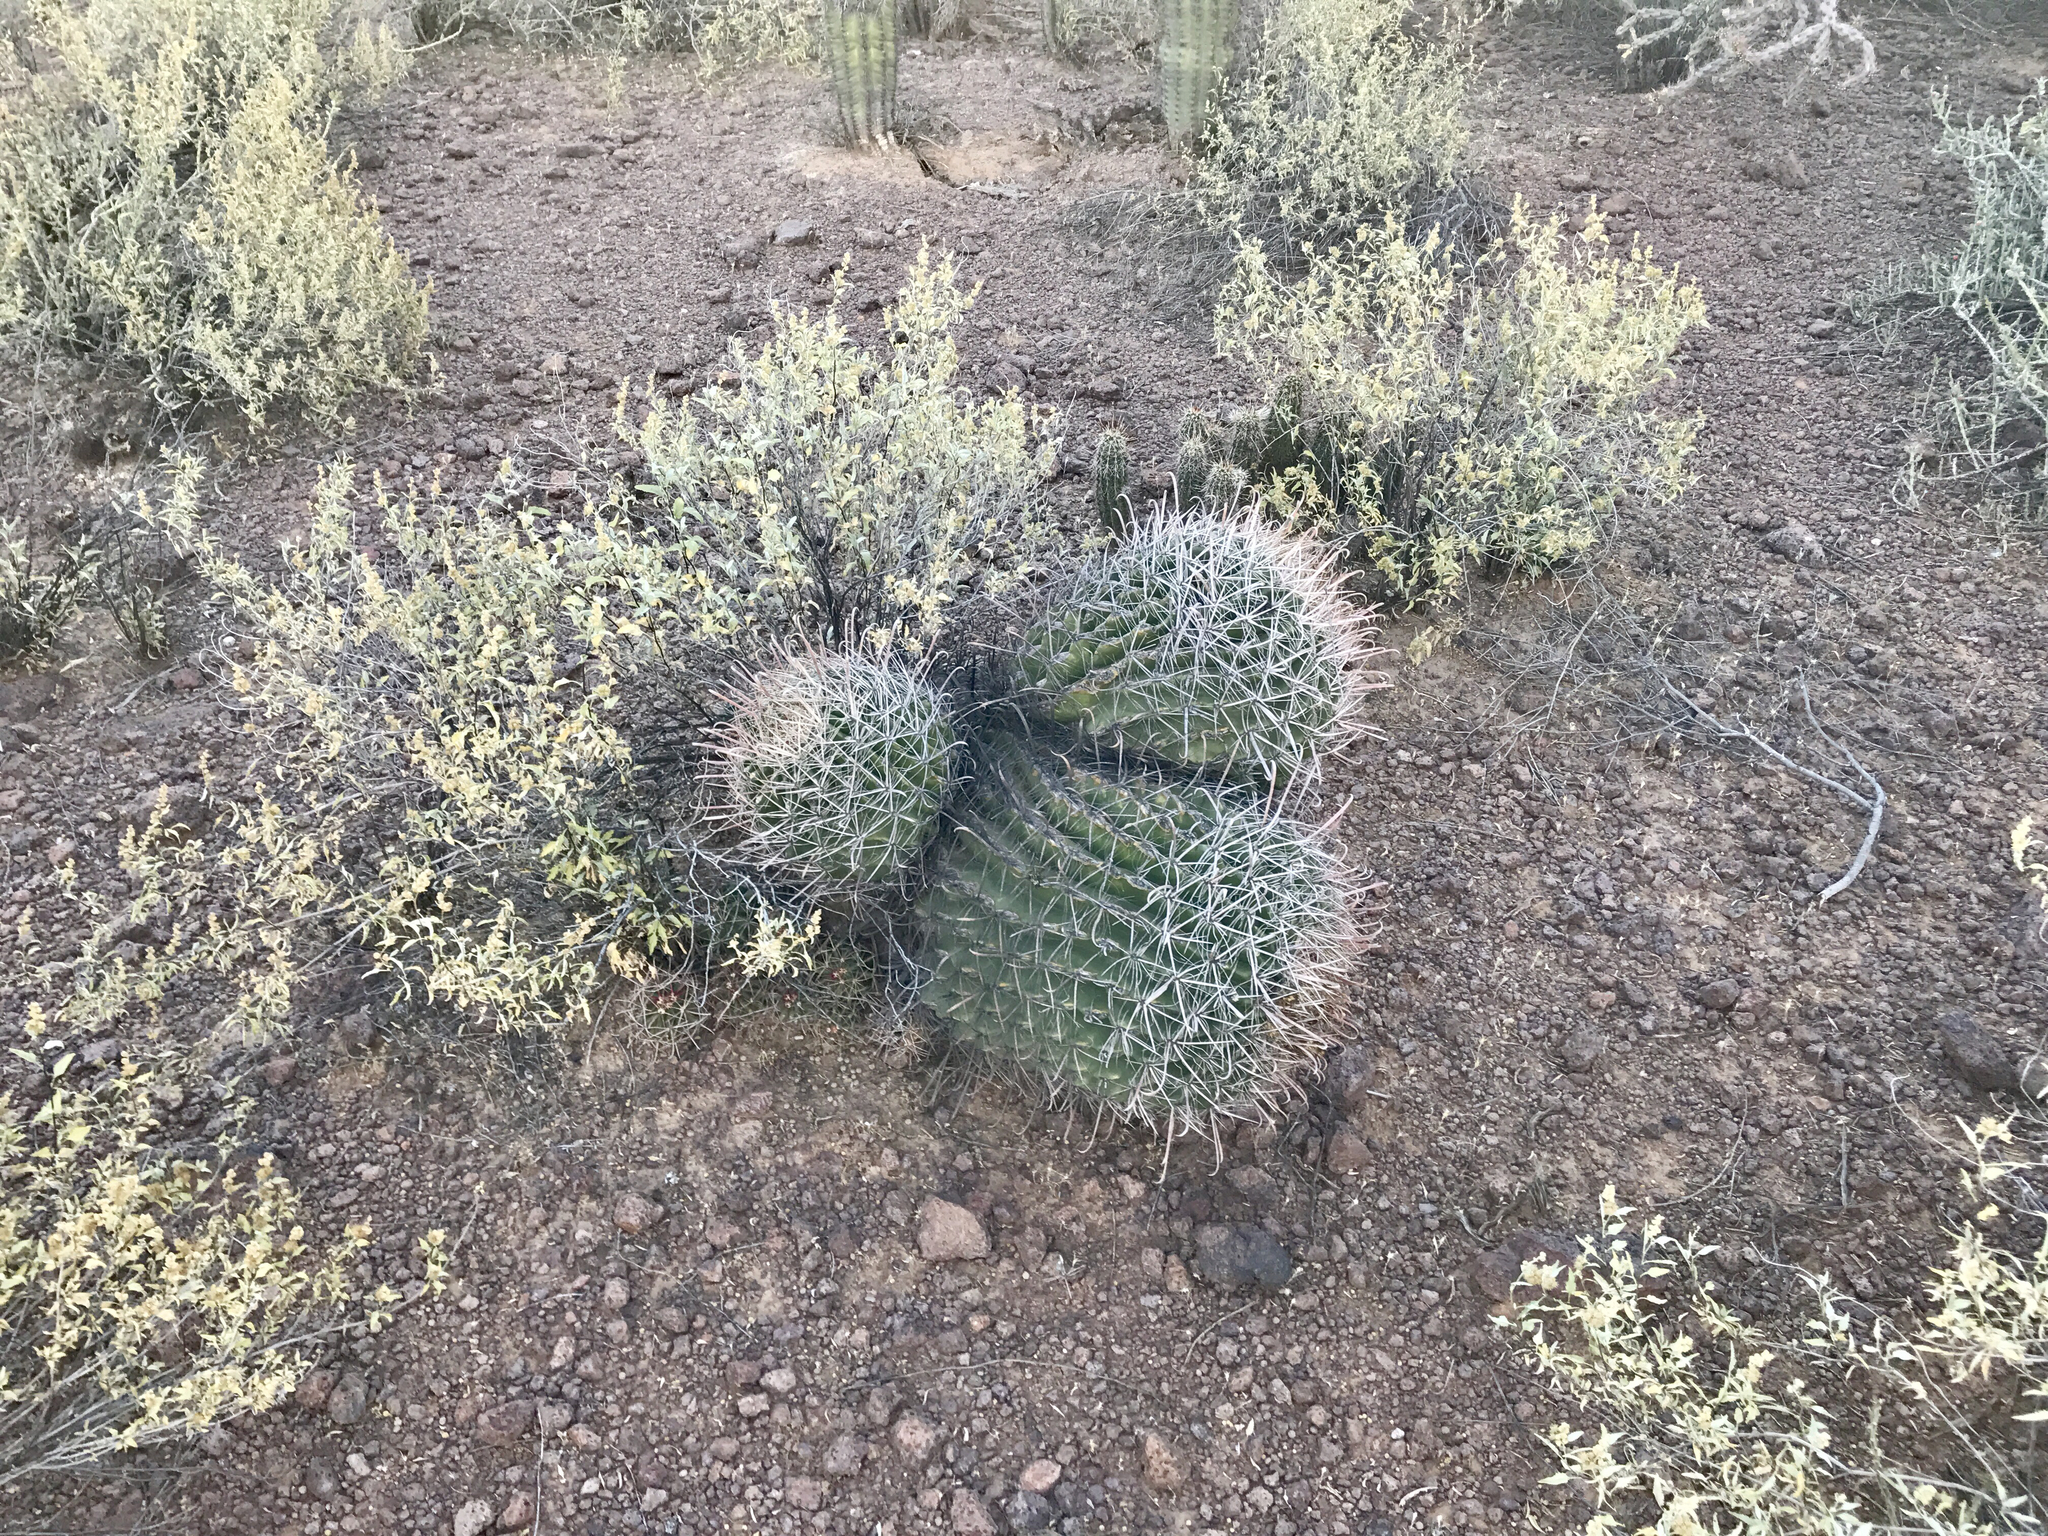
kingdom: Plantae
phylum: Tracheophyta
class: Magnoliopsida
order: Caryophyllales
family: Cactaceae
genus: Ferocactus
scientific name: Ferocactus wislizeni
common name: Candy barrel cactus
